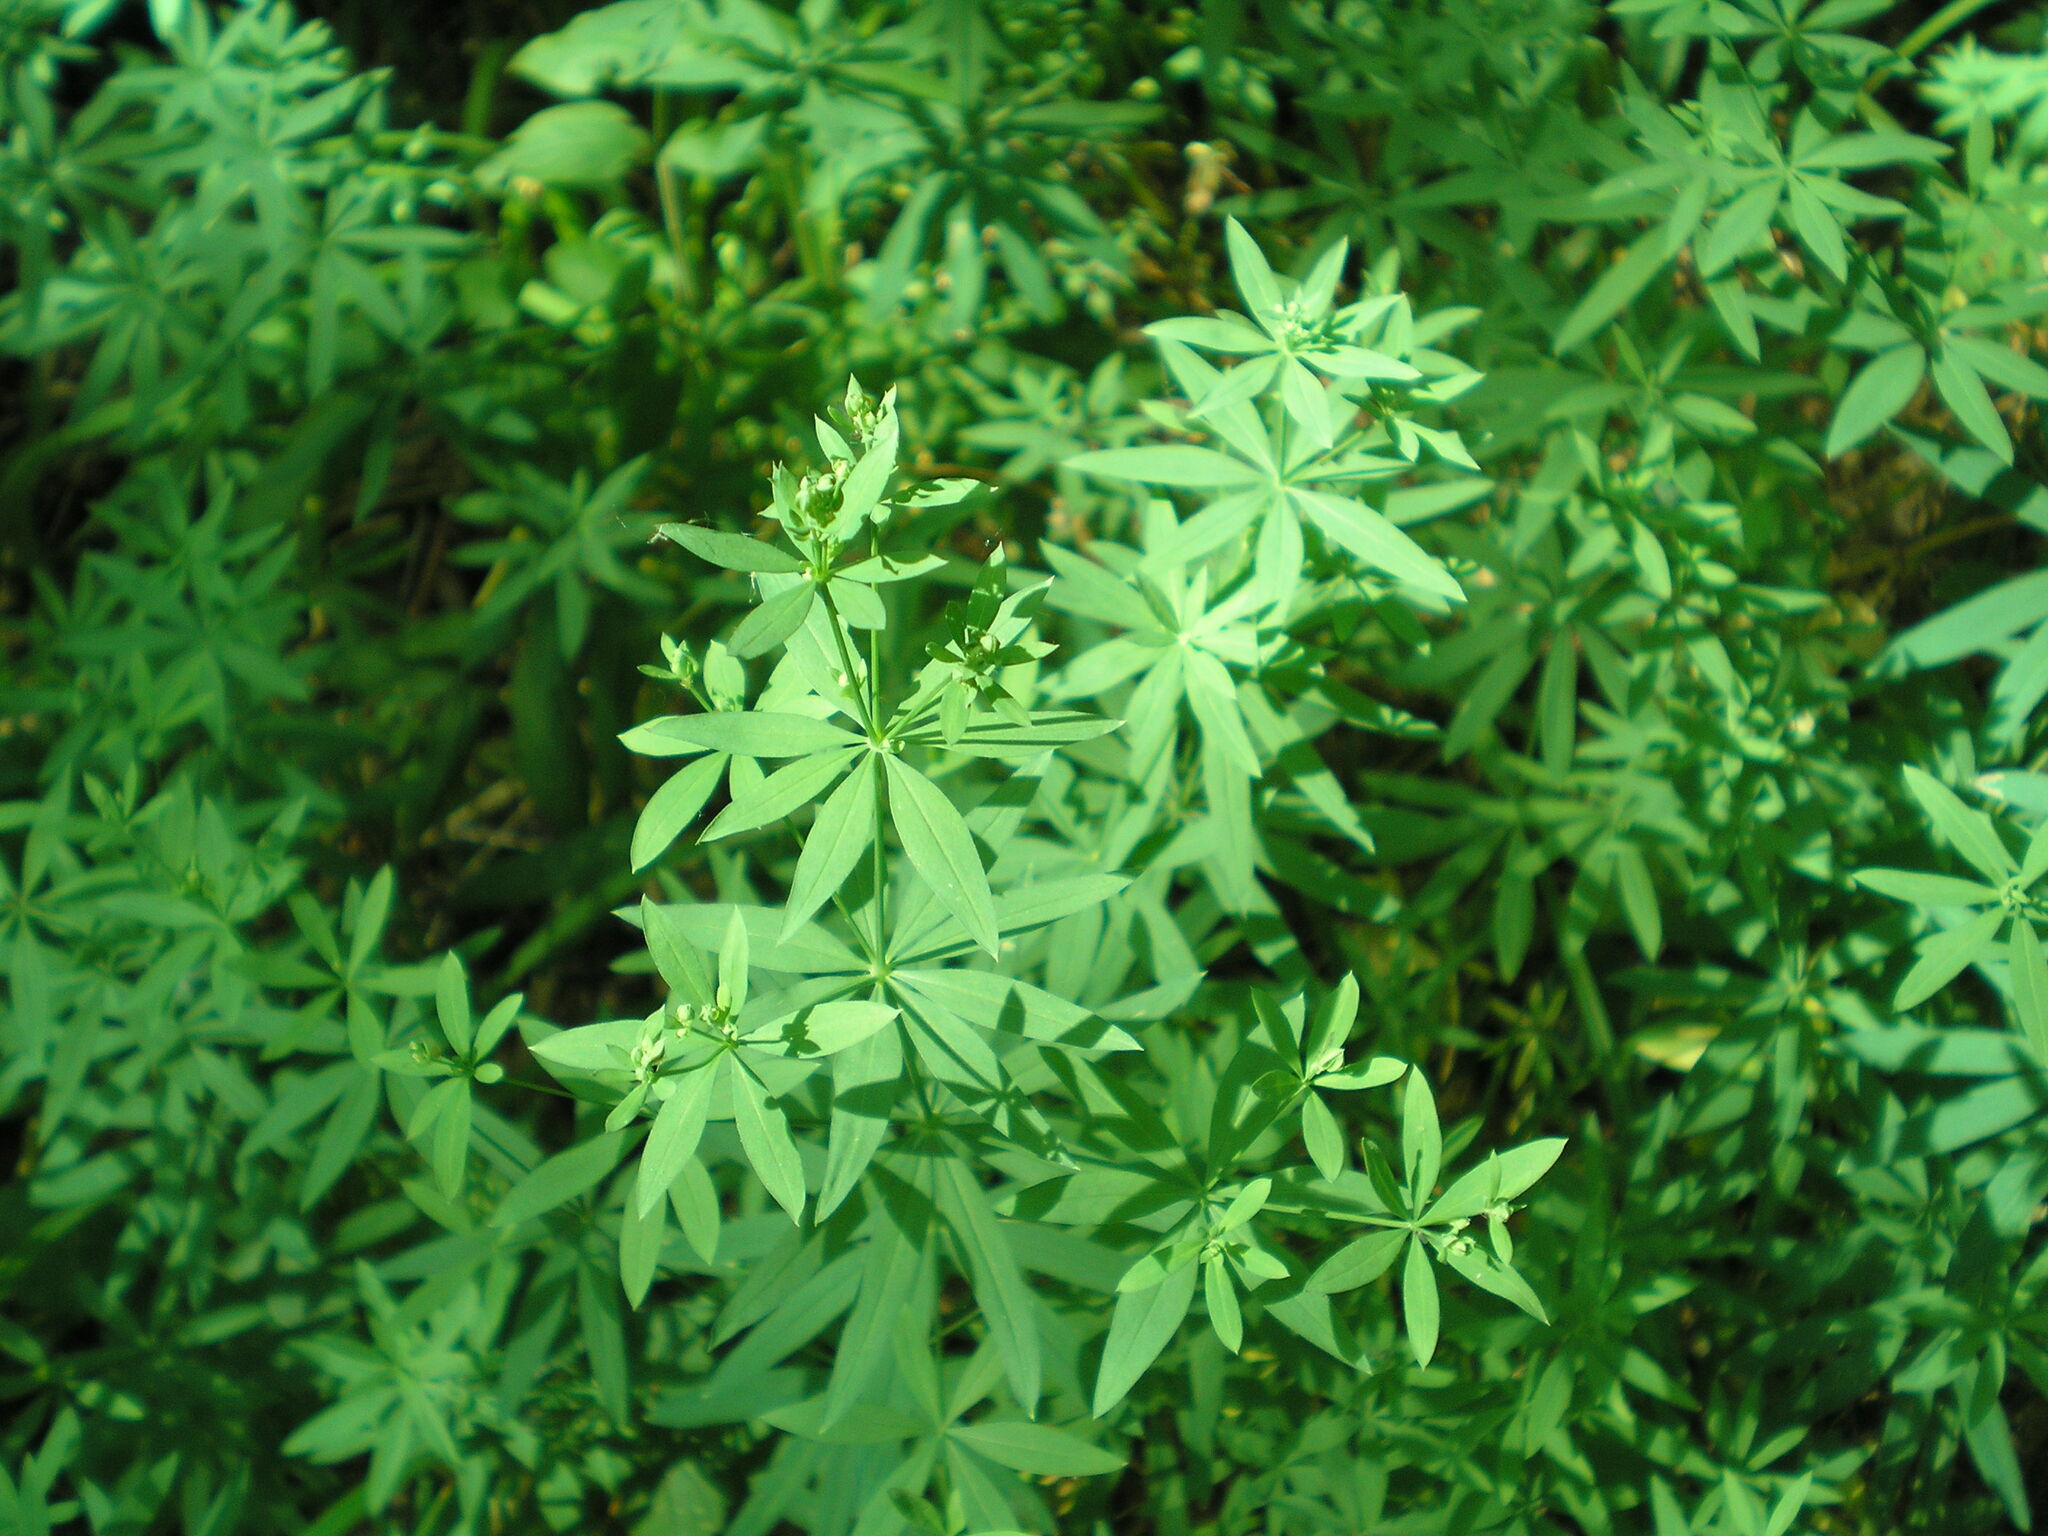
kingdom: Plantae
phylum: Tracheophyta
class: Magnoliopsida
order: Gentianales
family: Rubiaceae
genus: Galium
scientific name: Galium intermedium
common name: Bedstraw
